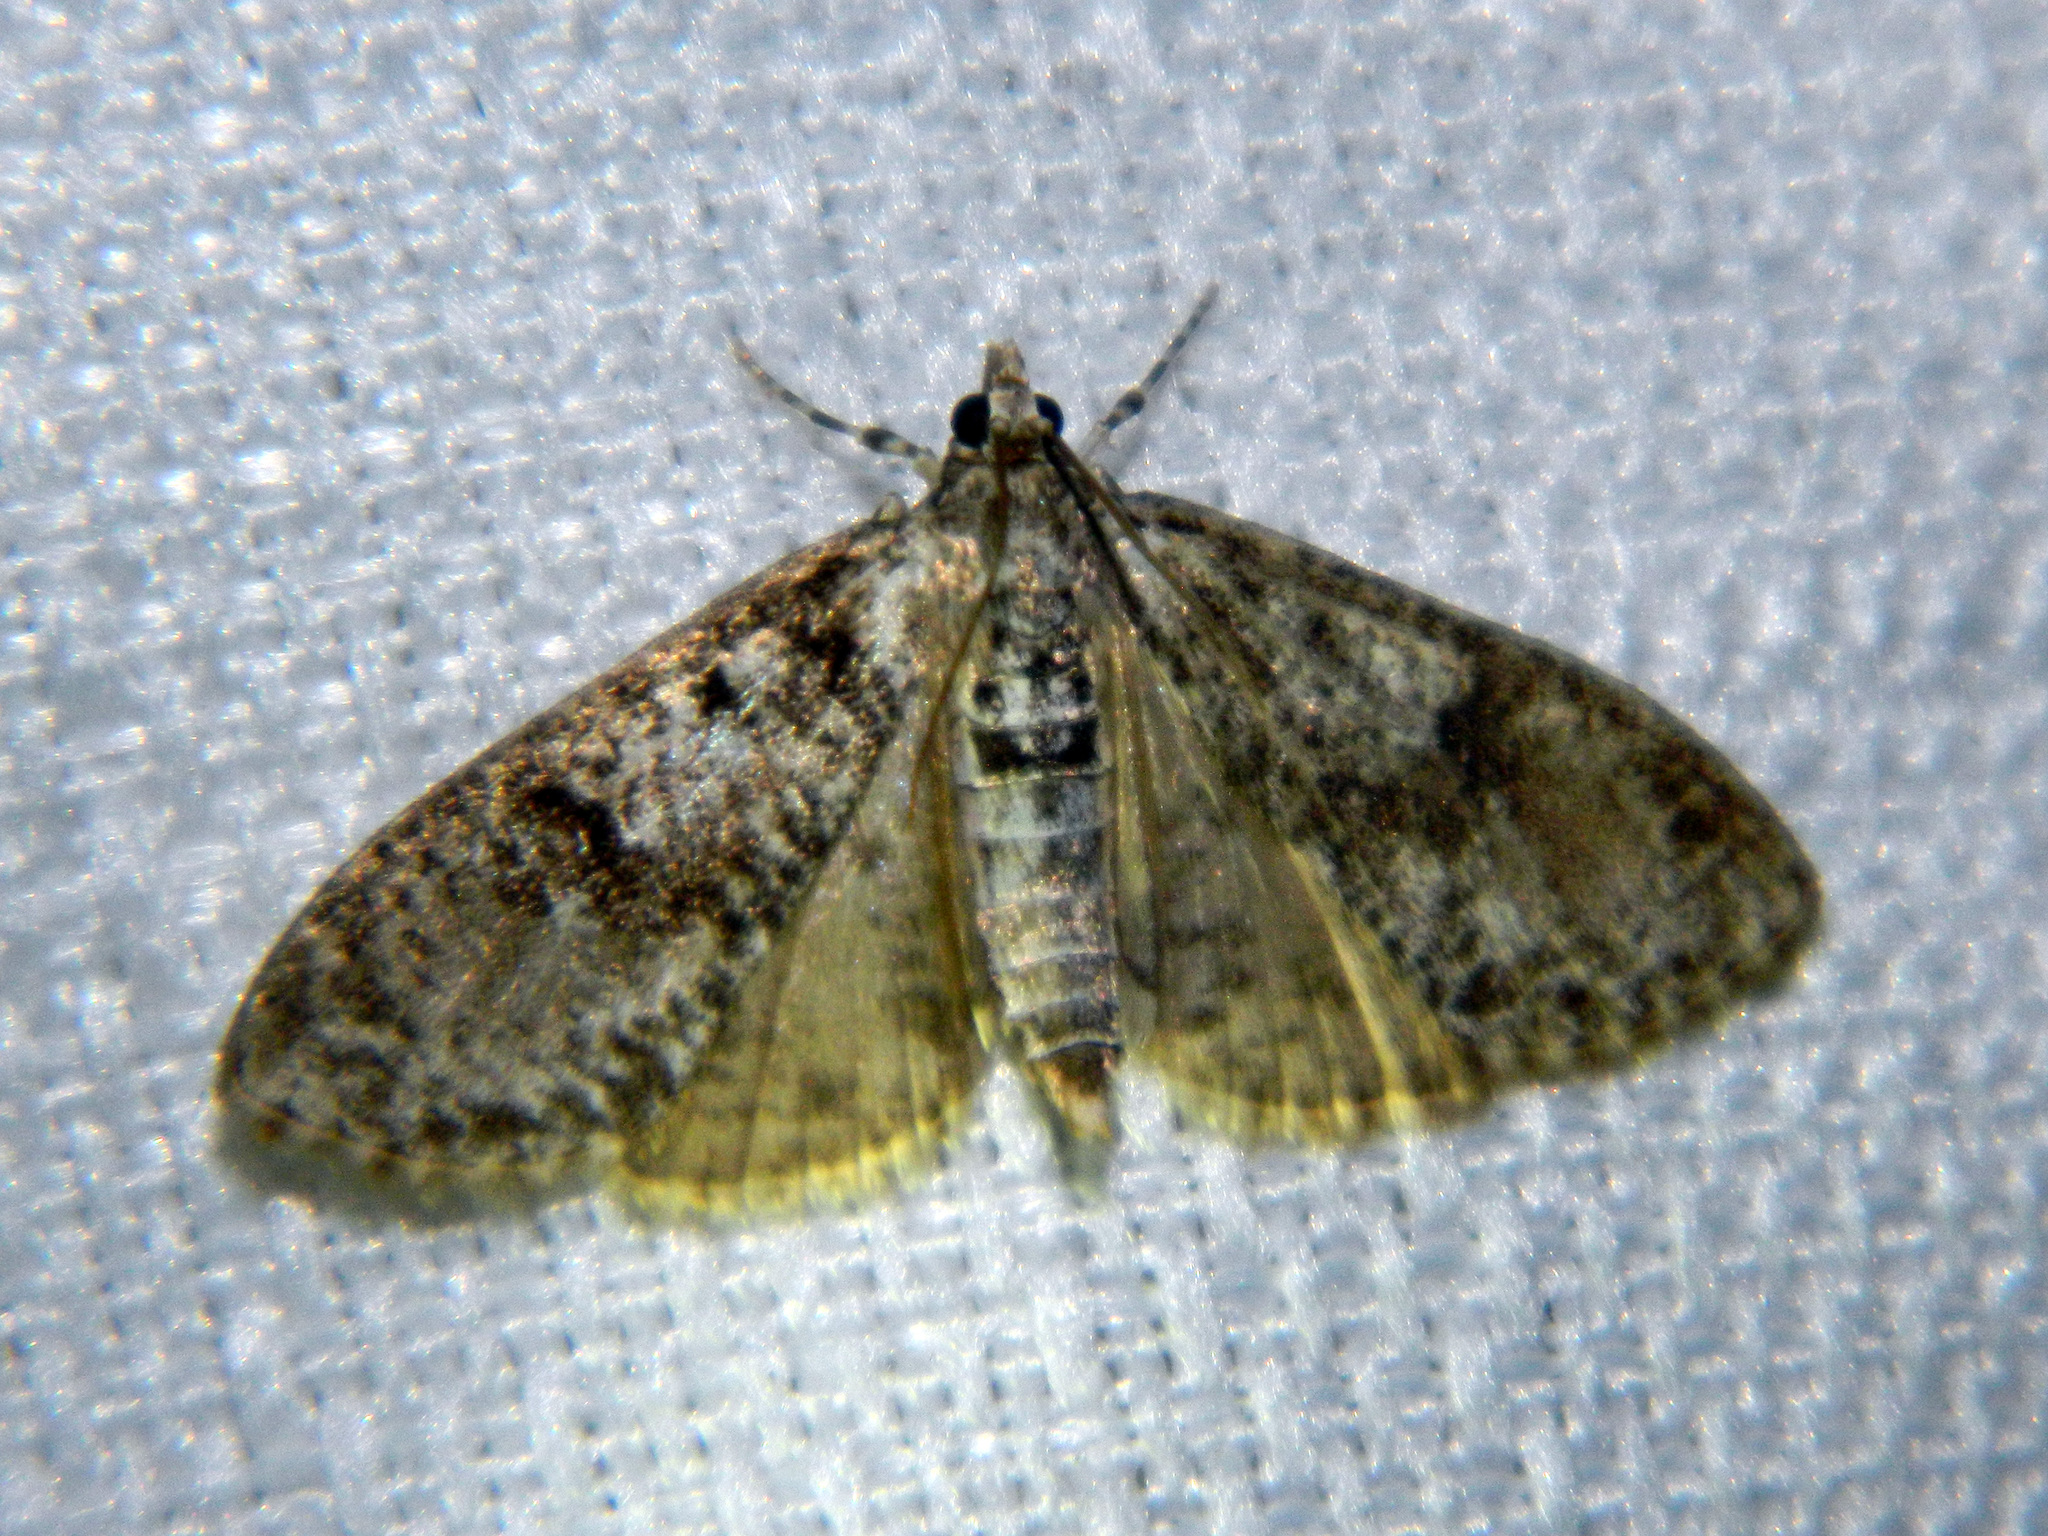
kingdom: Animalia
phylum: Arthropoda
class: Insecta
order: Lepidoptera
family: Crambidae
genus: Palpita
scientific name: Palpita magniferalis
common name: Splendid palpita moth
